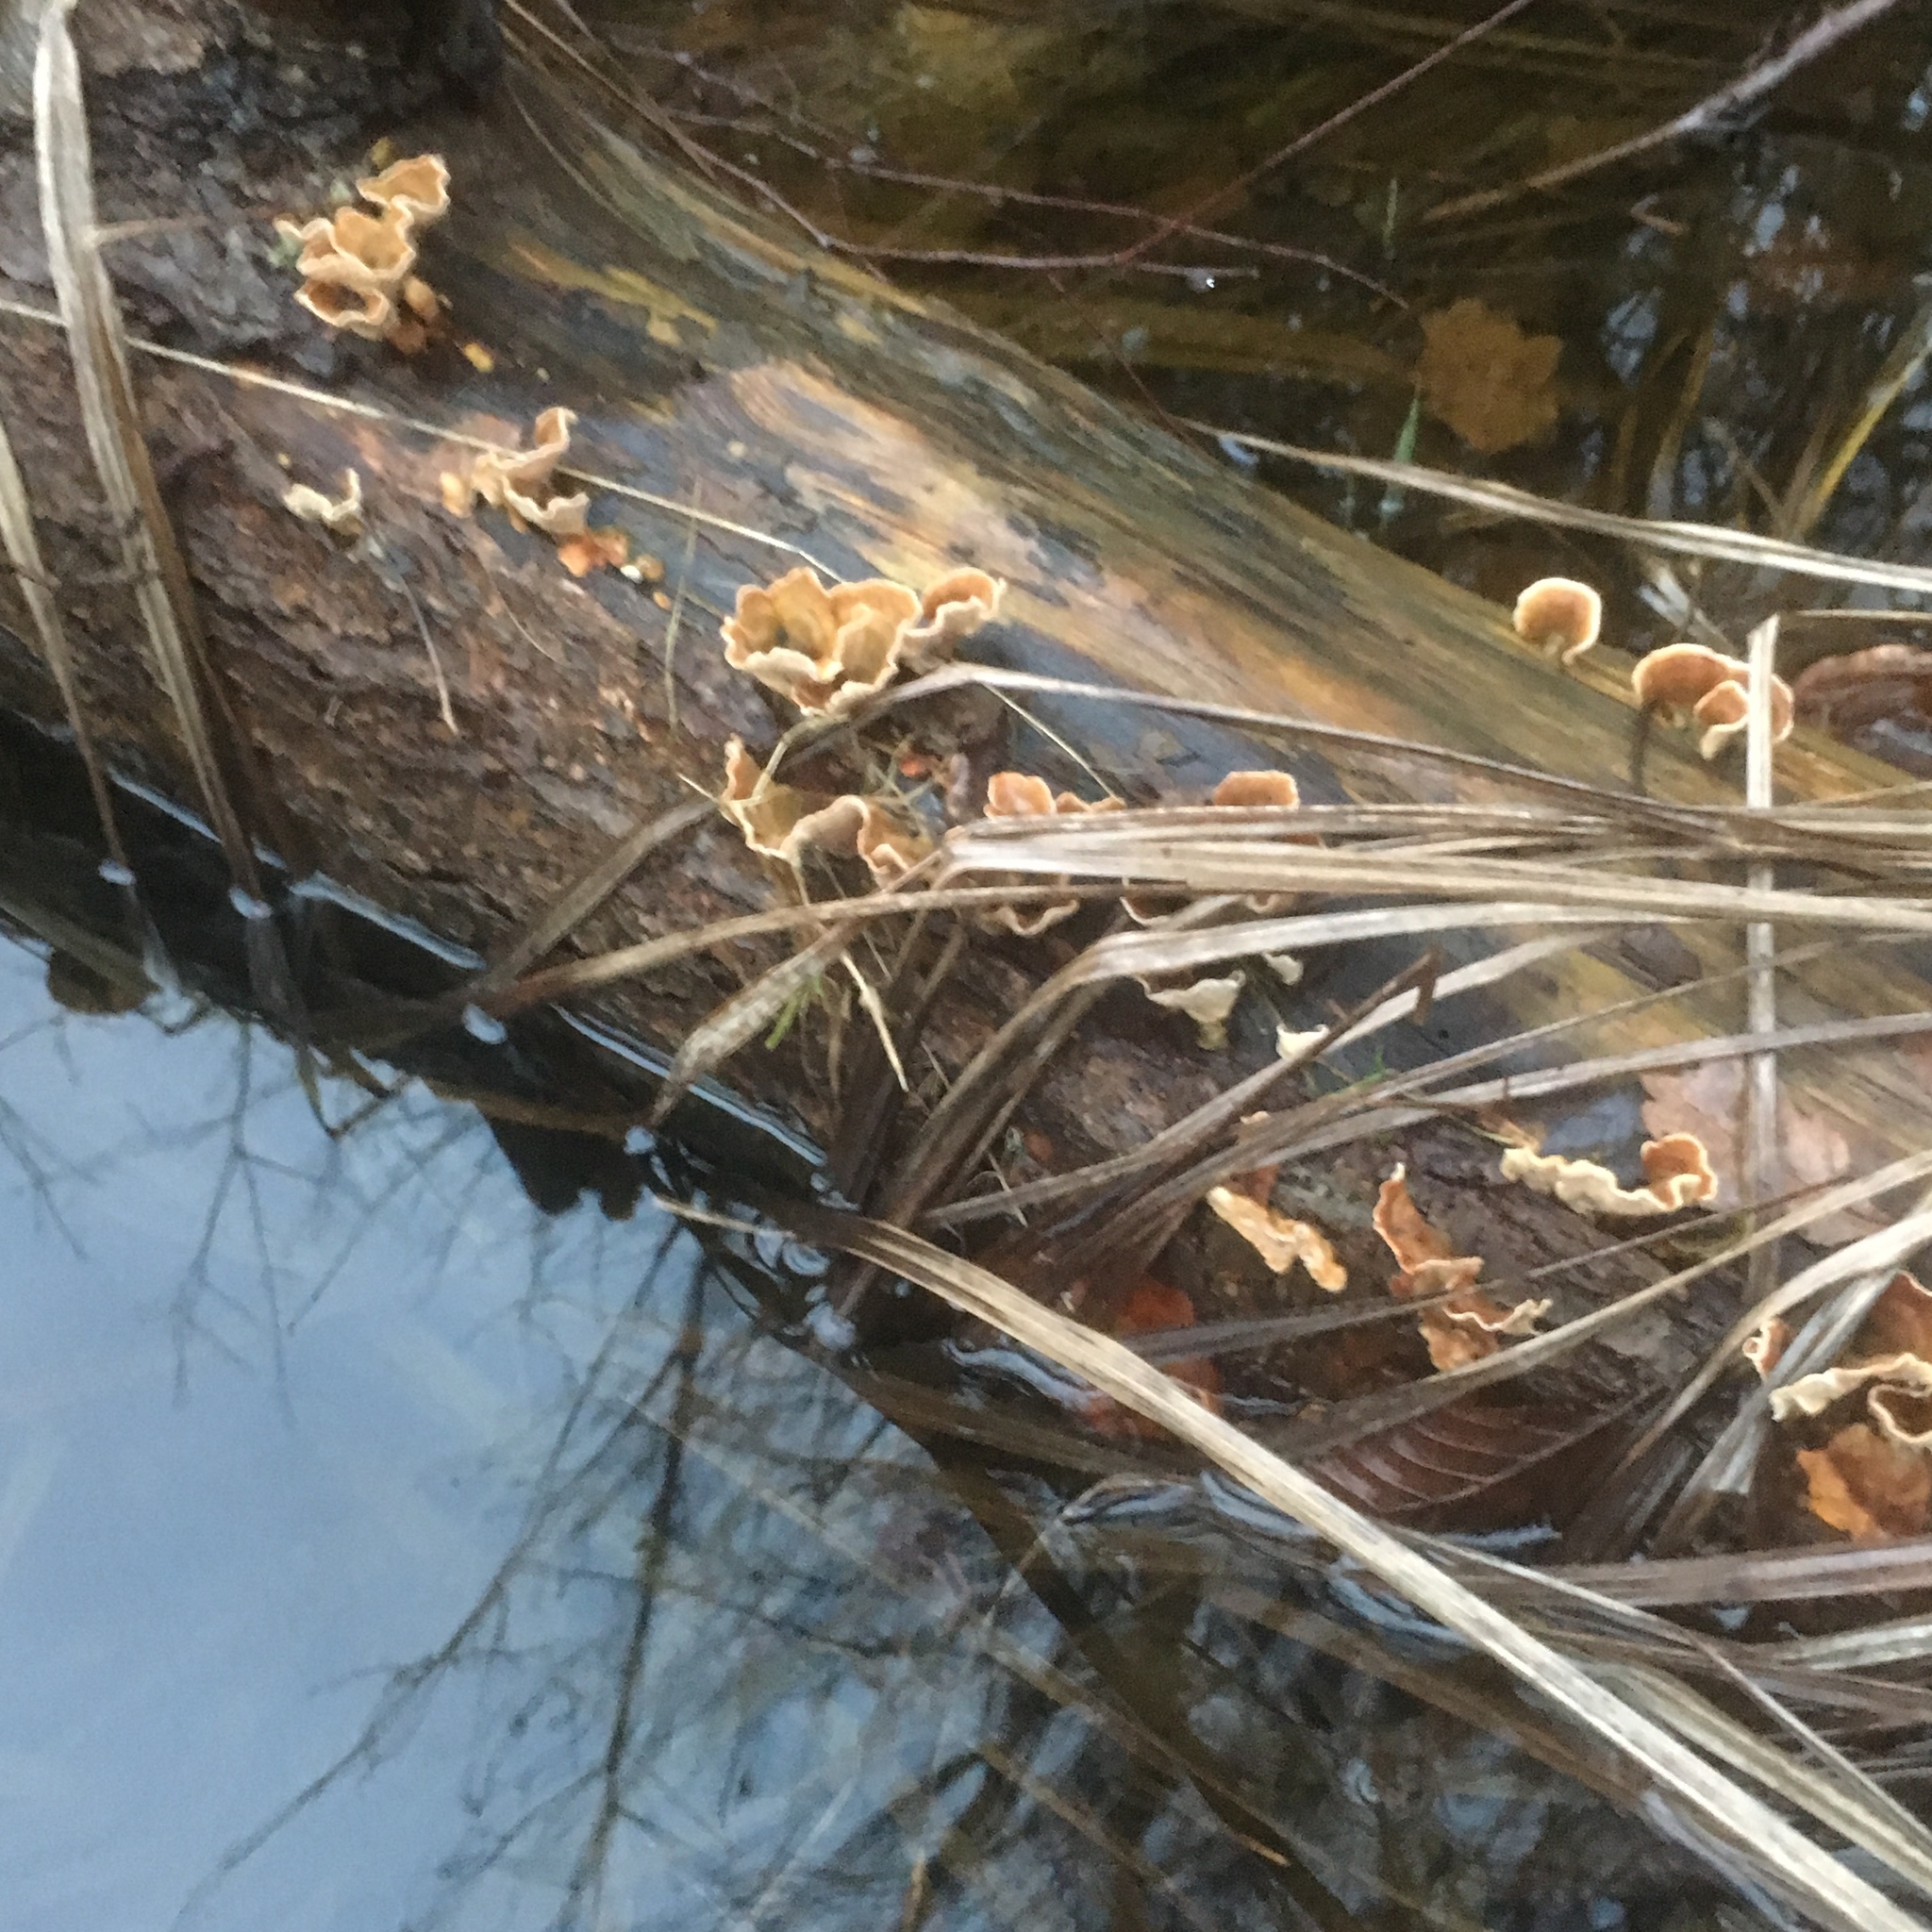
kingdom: Fungi
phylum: Basidiomycota
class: Agaricomycetes
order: Russulales
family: Stereaceae
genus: Stereum
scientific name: Stereum hirsutum
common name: Hairy curtain crust
